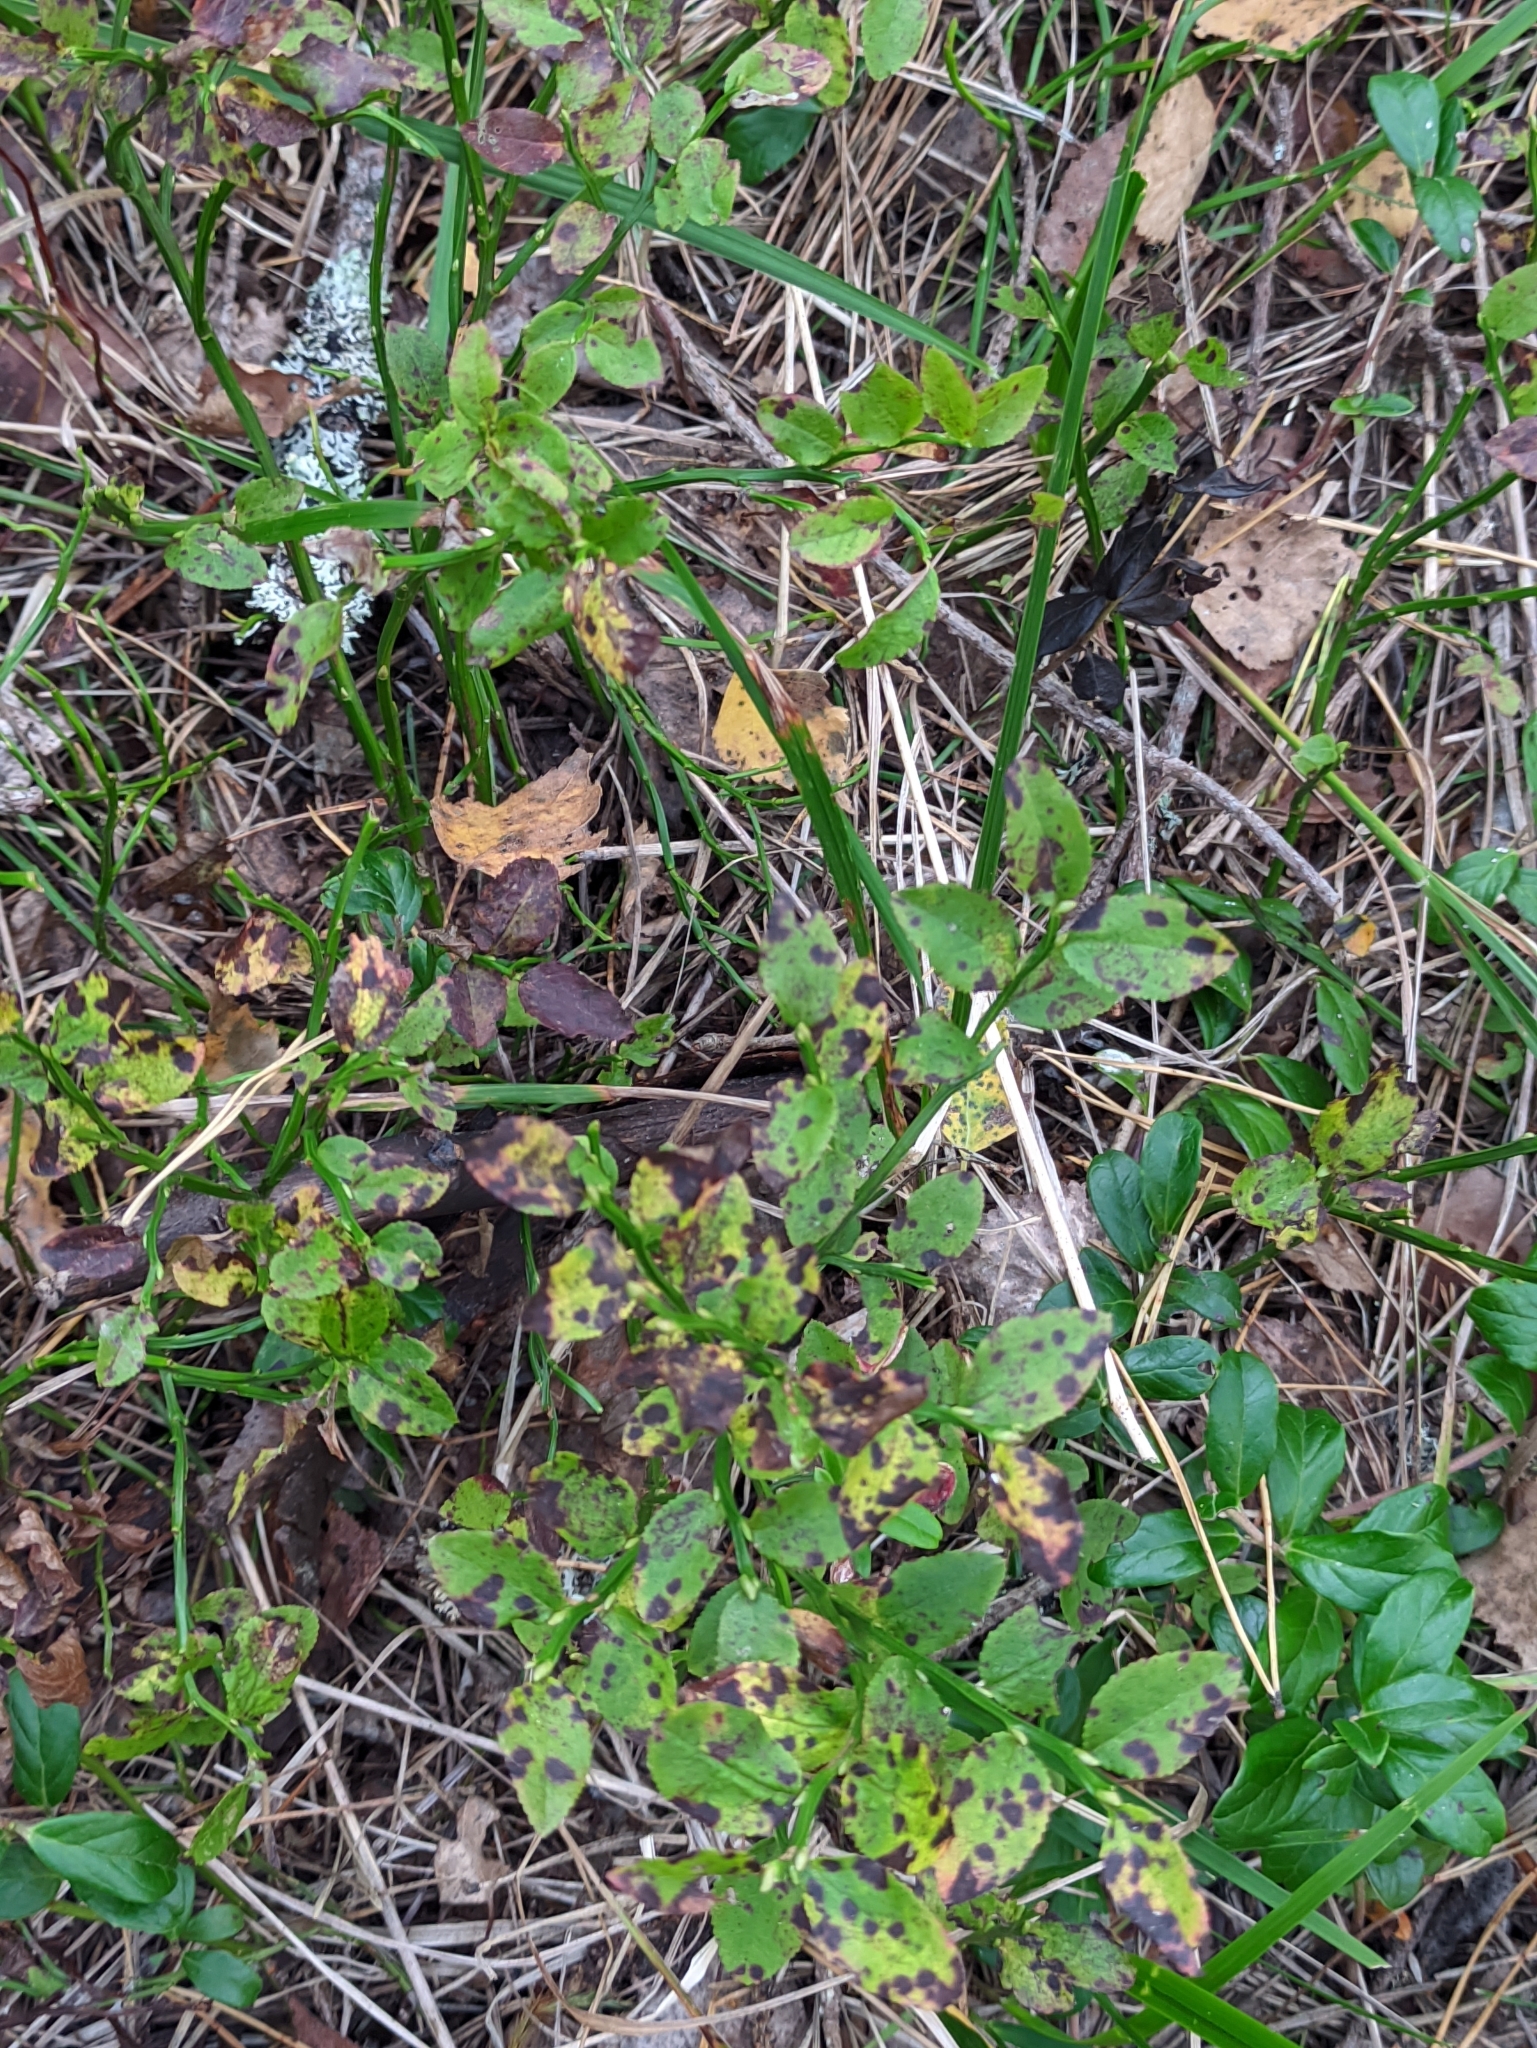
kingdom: Plantae
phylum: Tracheophyta
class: Magnoliopsida
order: Ericales
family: Ericaceae
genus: Vaccinium
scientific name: Vaccinium myrtillus
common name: Bilberry
